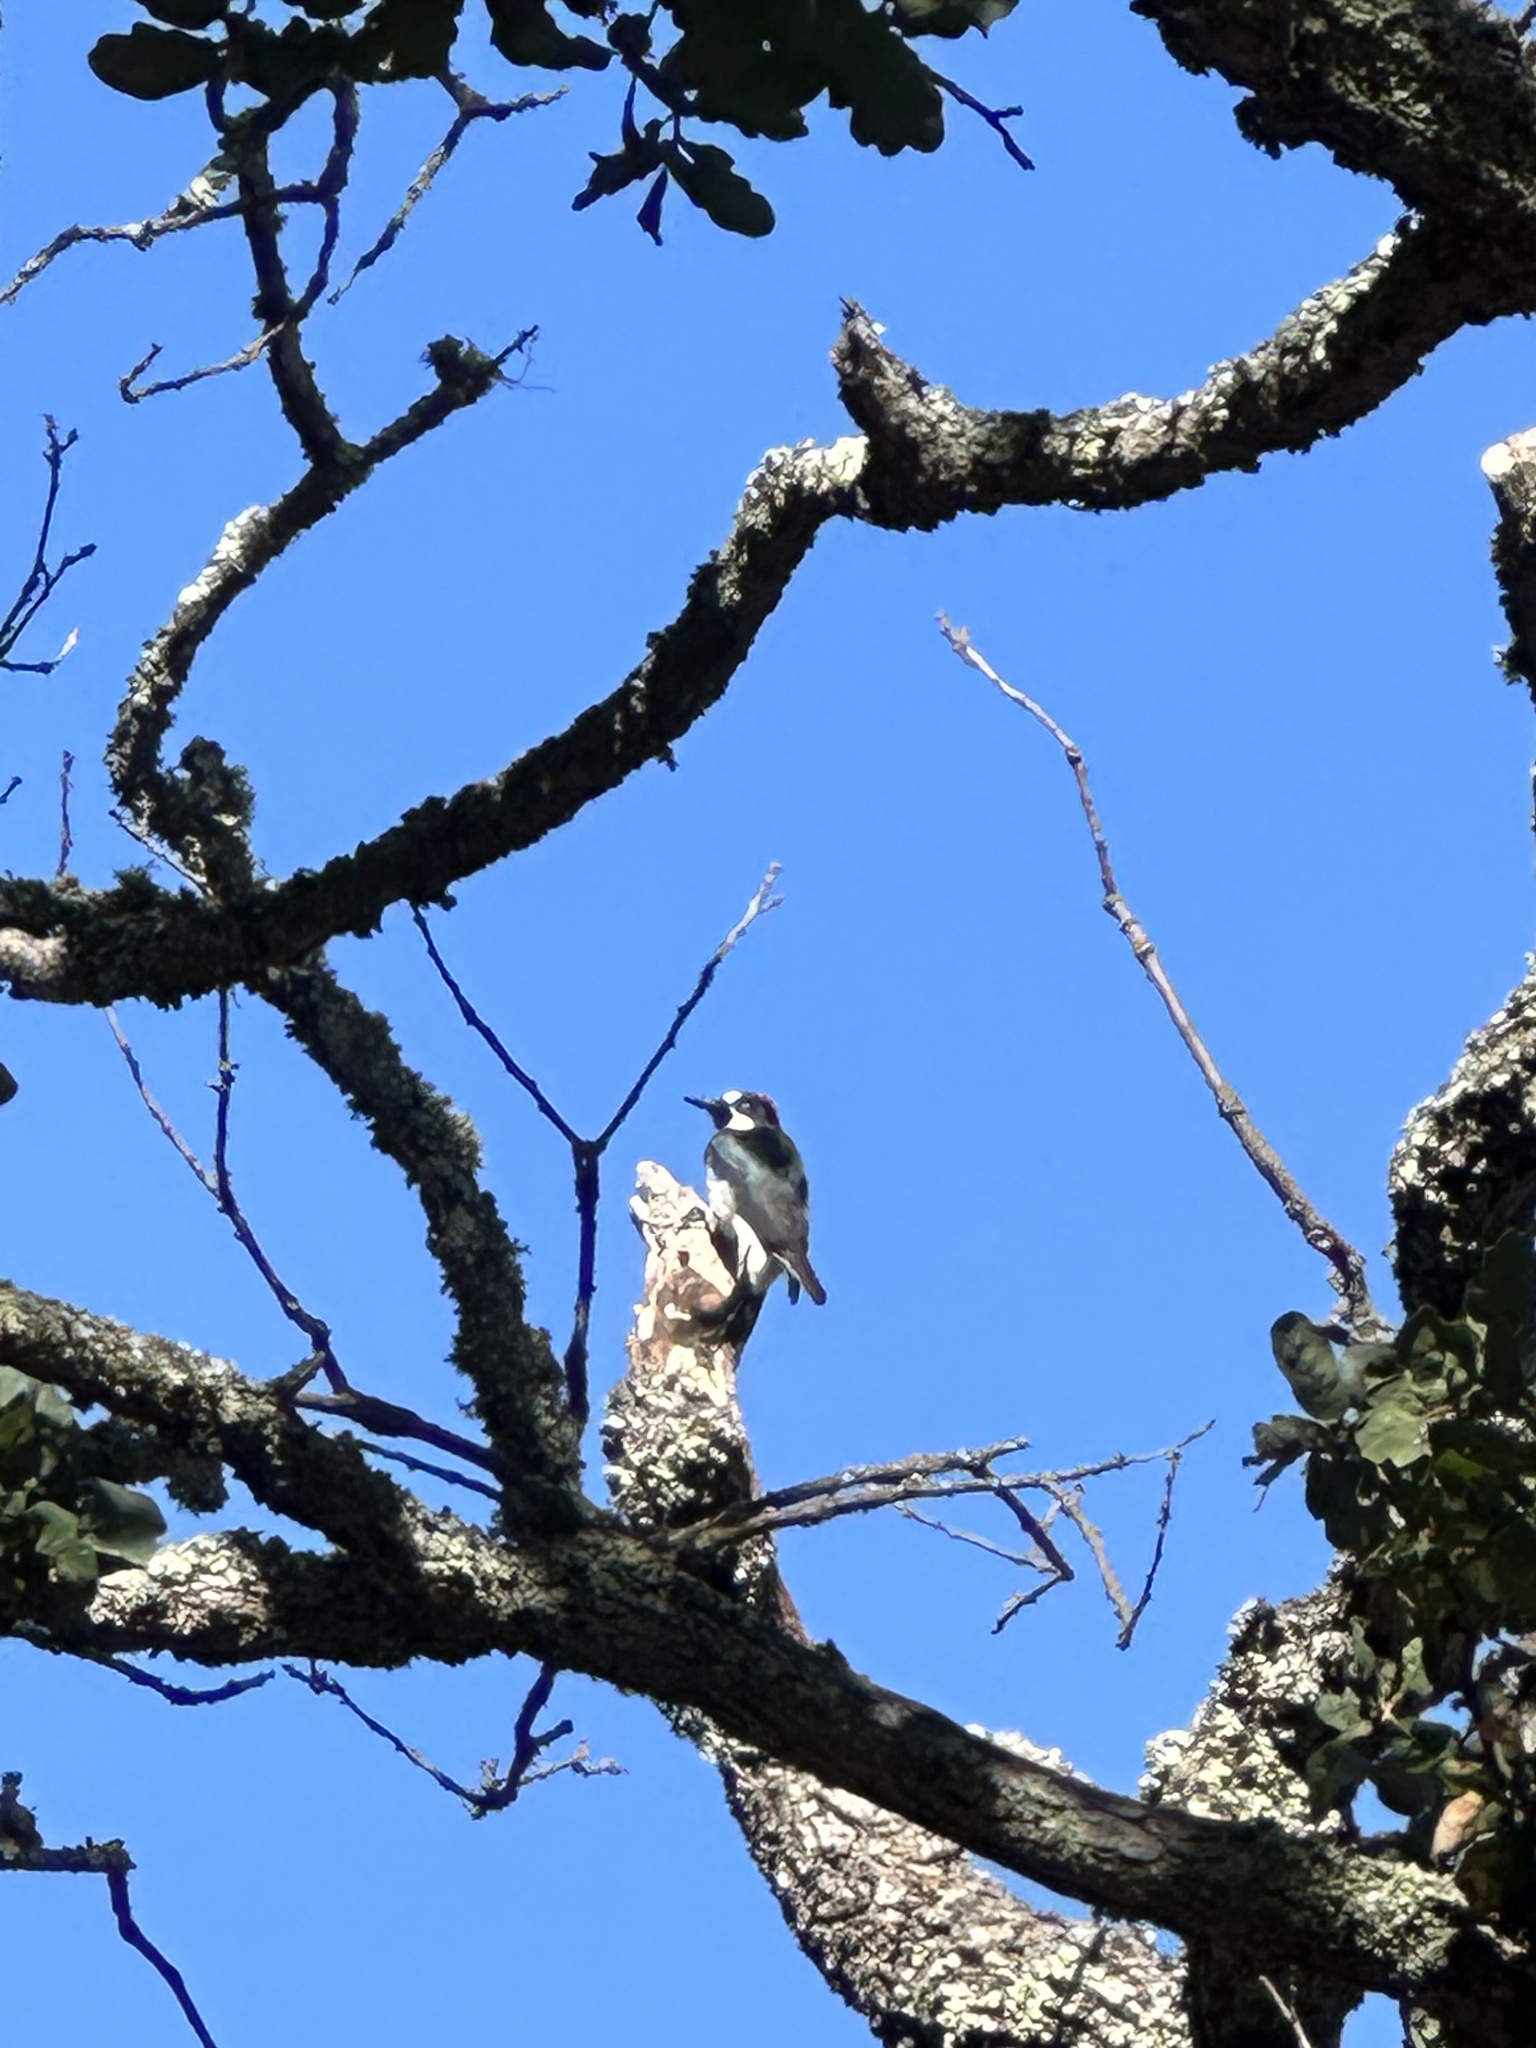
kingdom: Animalia
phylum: Chordata
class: Aves
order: Piciformes
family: Picidae
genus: Melanerpes
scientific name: Melanerpes formicivorus
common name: Acorn woodpecker
